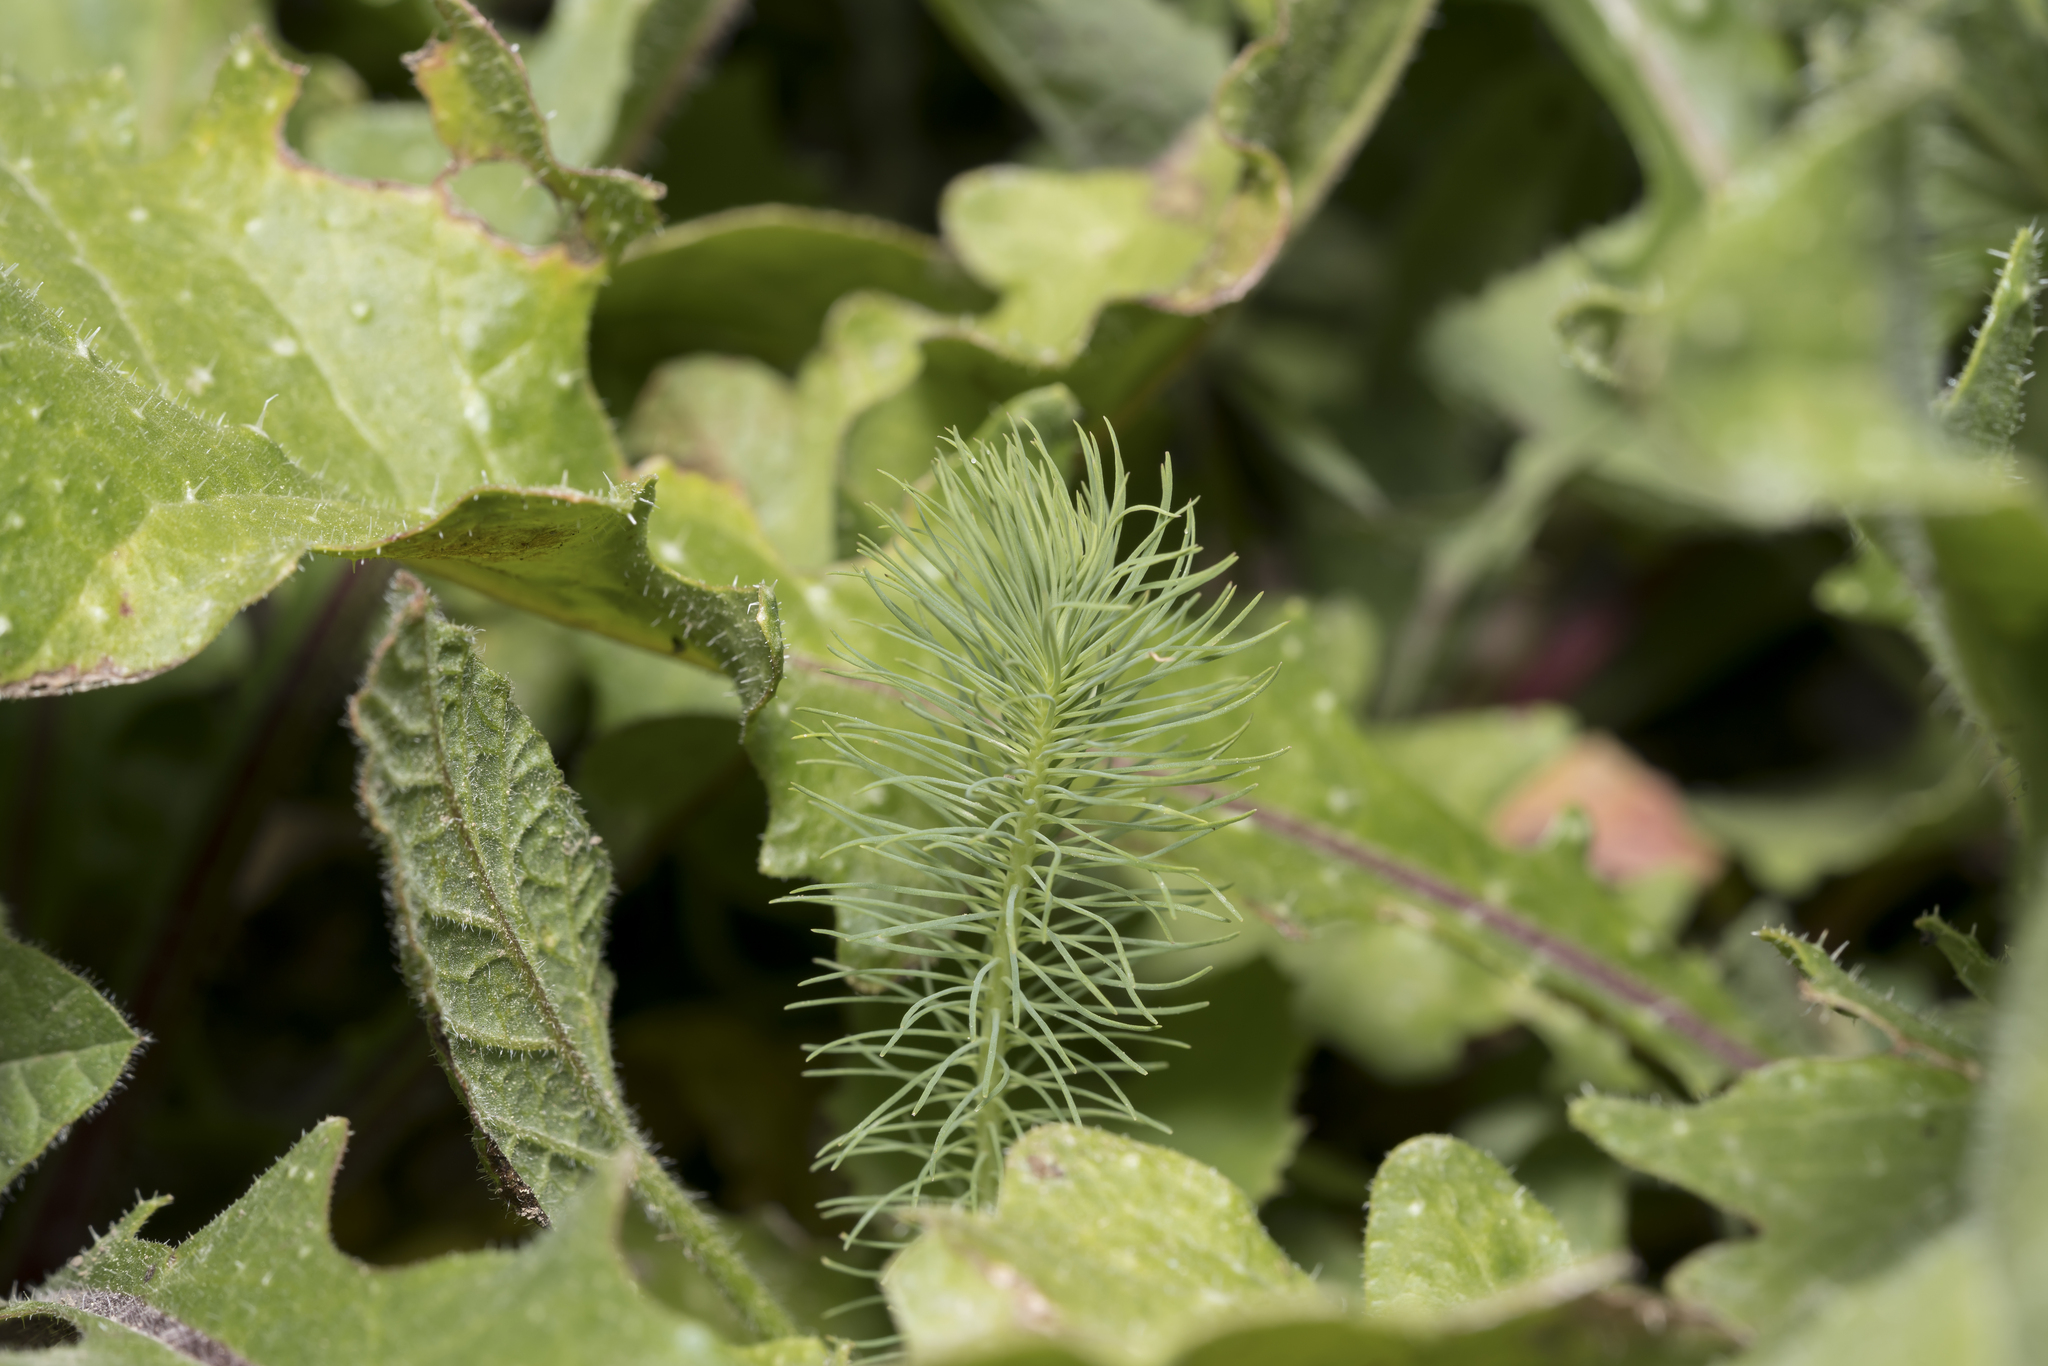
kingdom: Plantae
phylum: Tracheophyta
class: Magnoliopsida
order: Malpighiales
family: Euphorbiaceae
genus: Euphorbia
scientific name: Euphorbia aleppica
